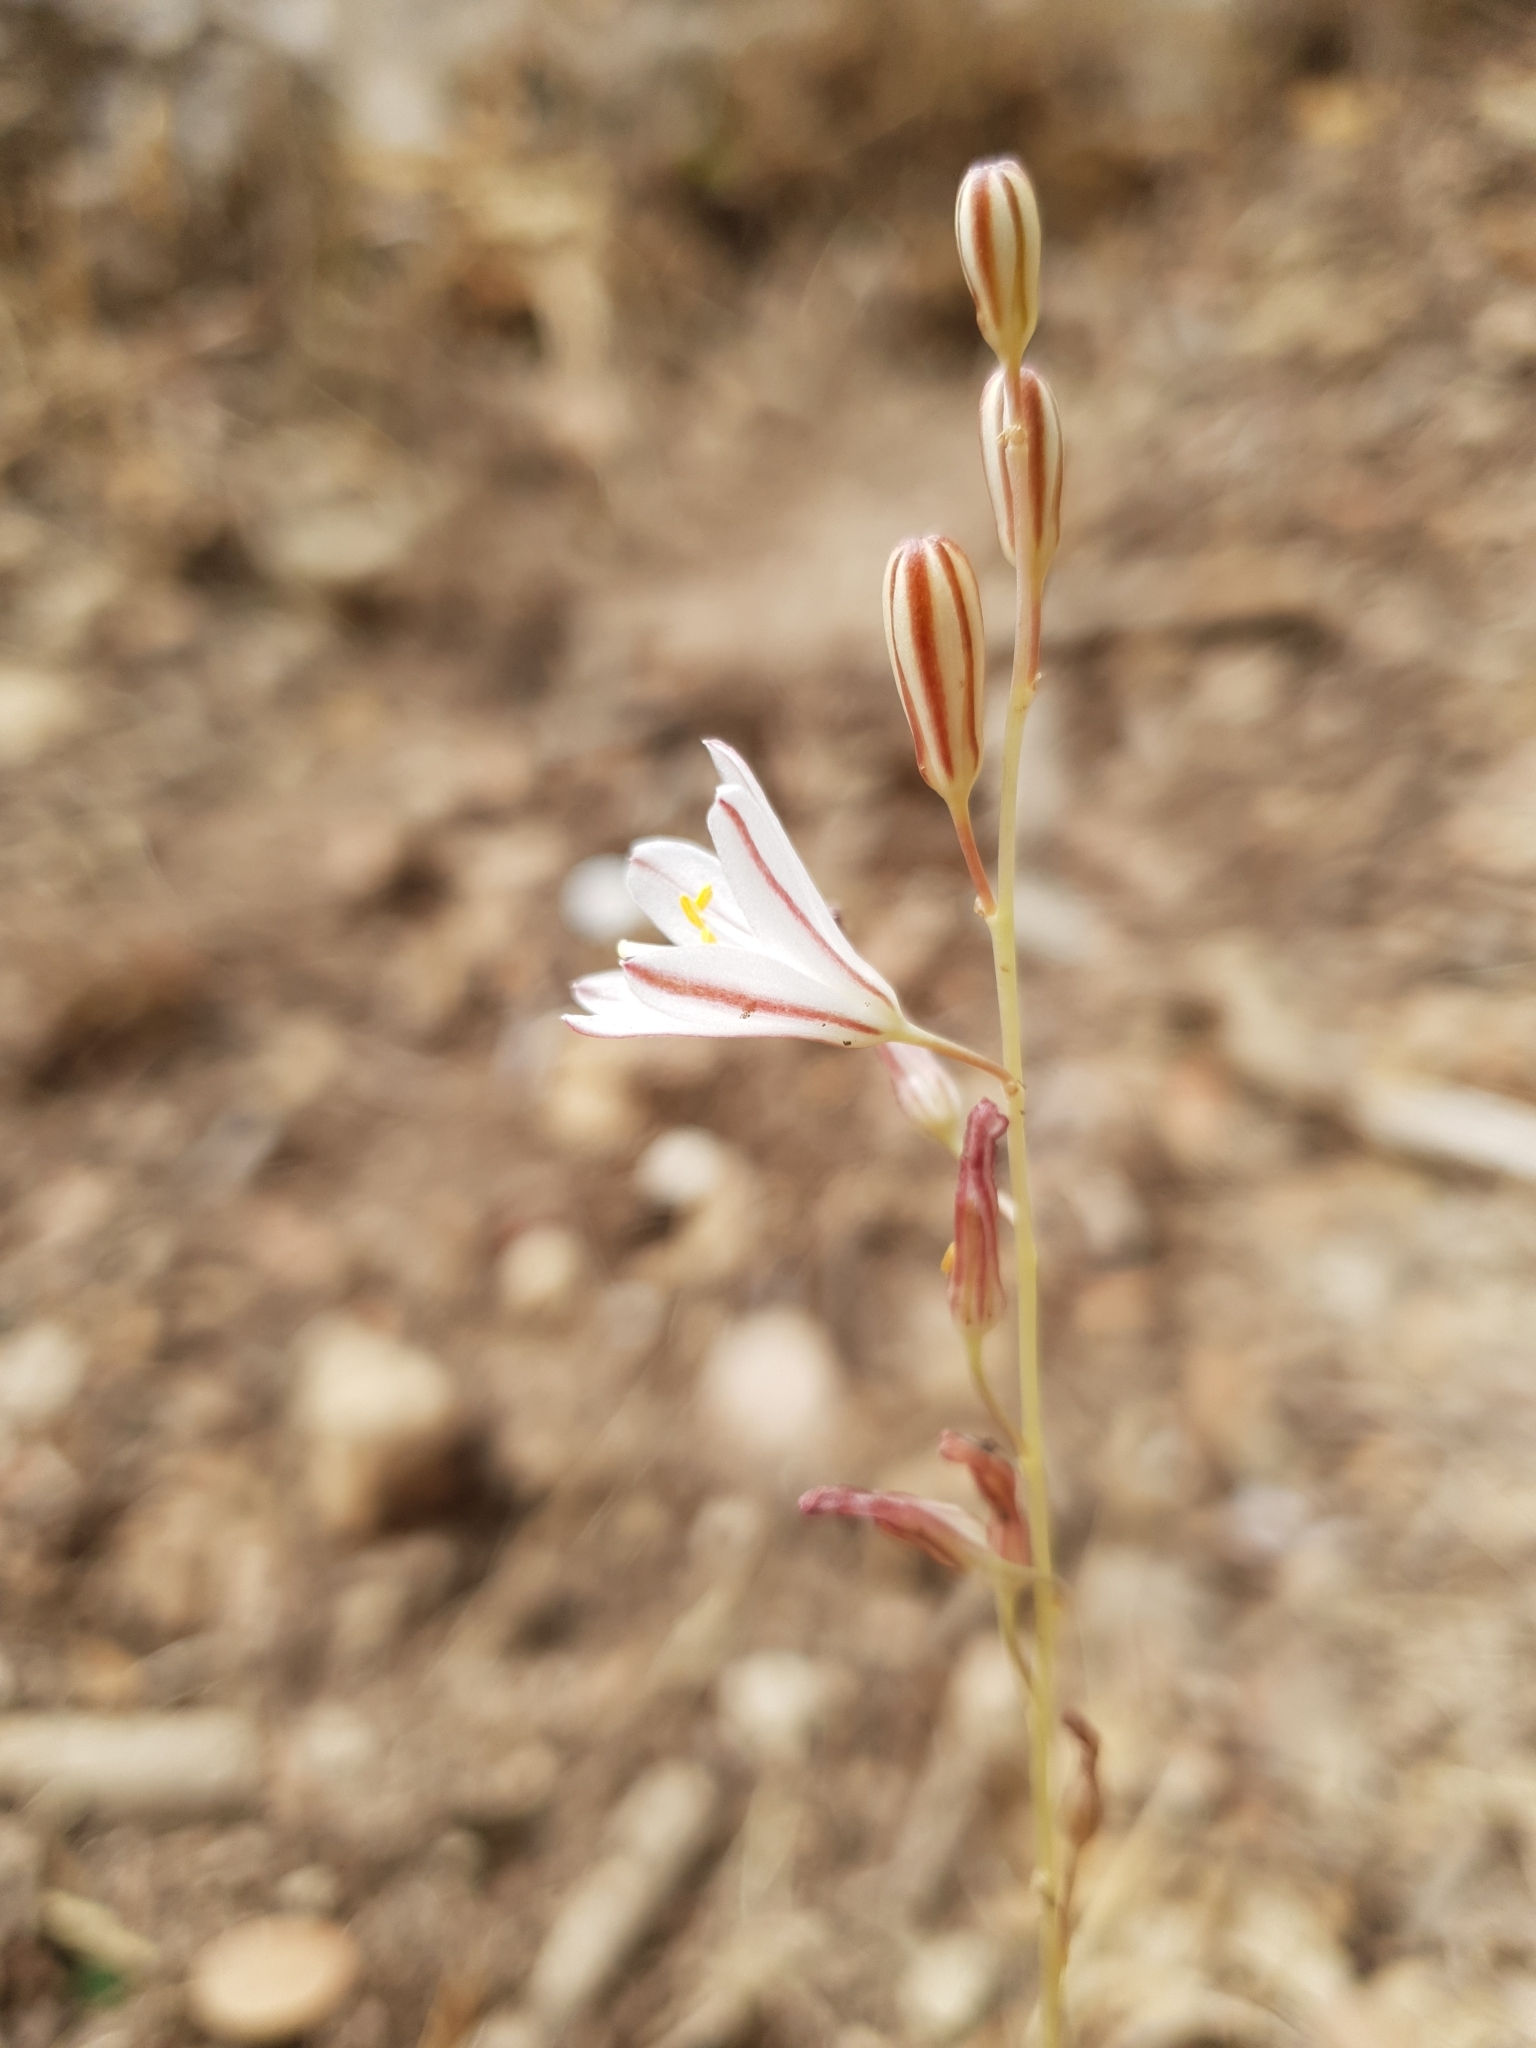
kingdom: Plantae
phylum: Tracheophyta
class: Liliopsida
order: Asparagales
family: Asparagaceae
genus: Drimia
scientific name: Drimia fugax
